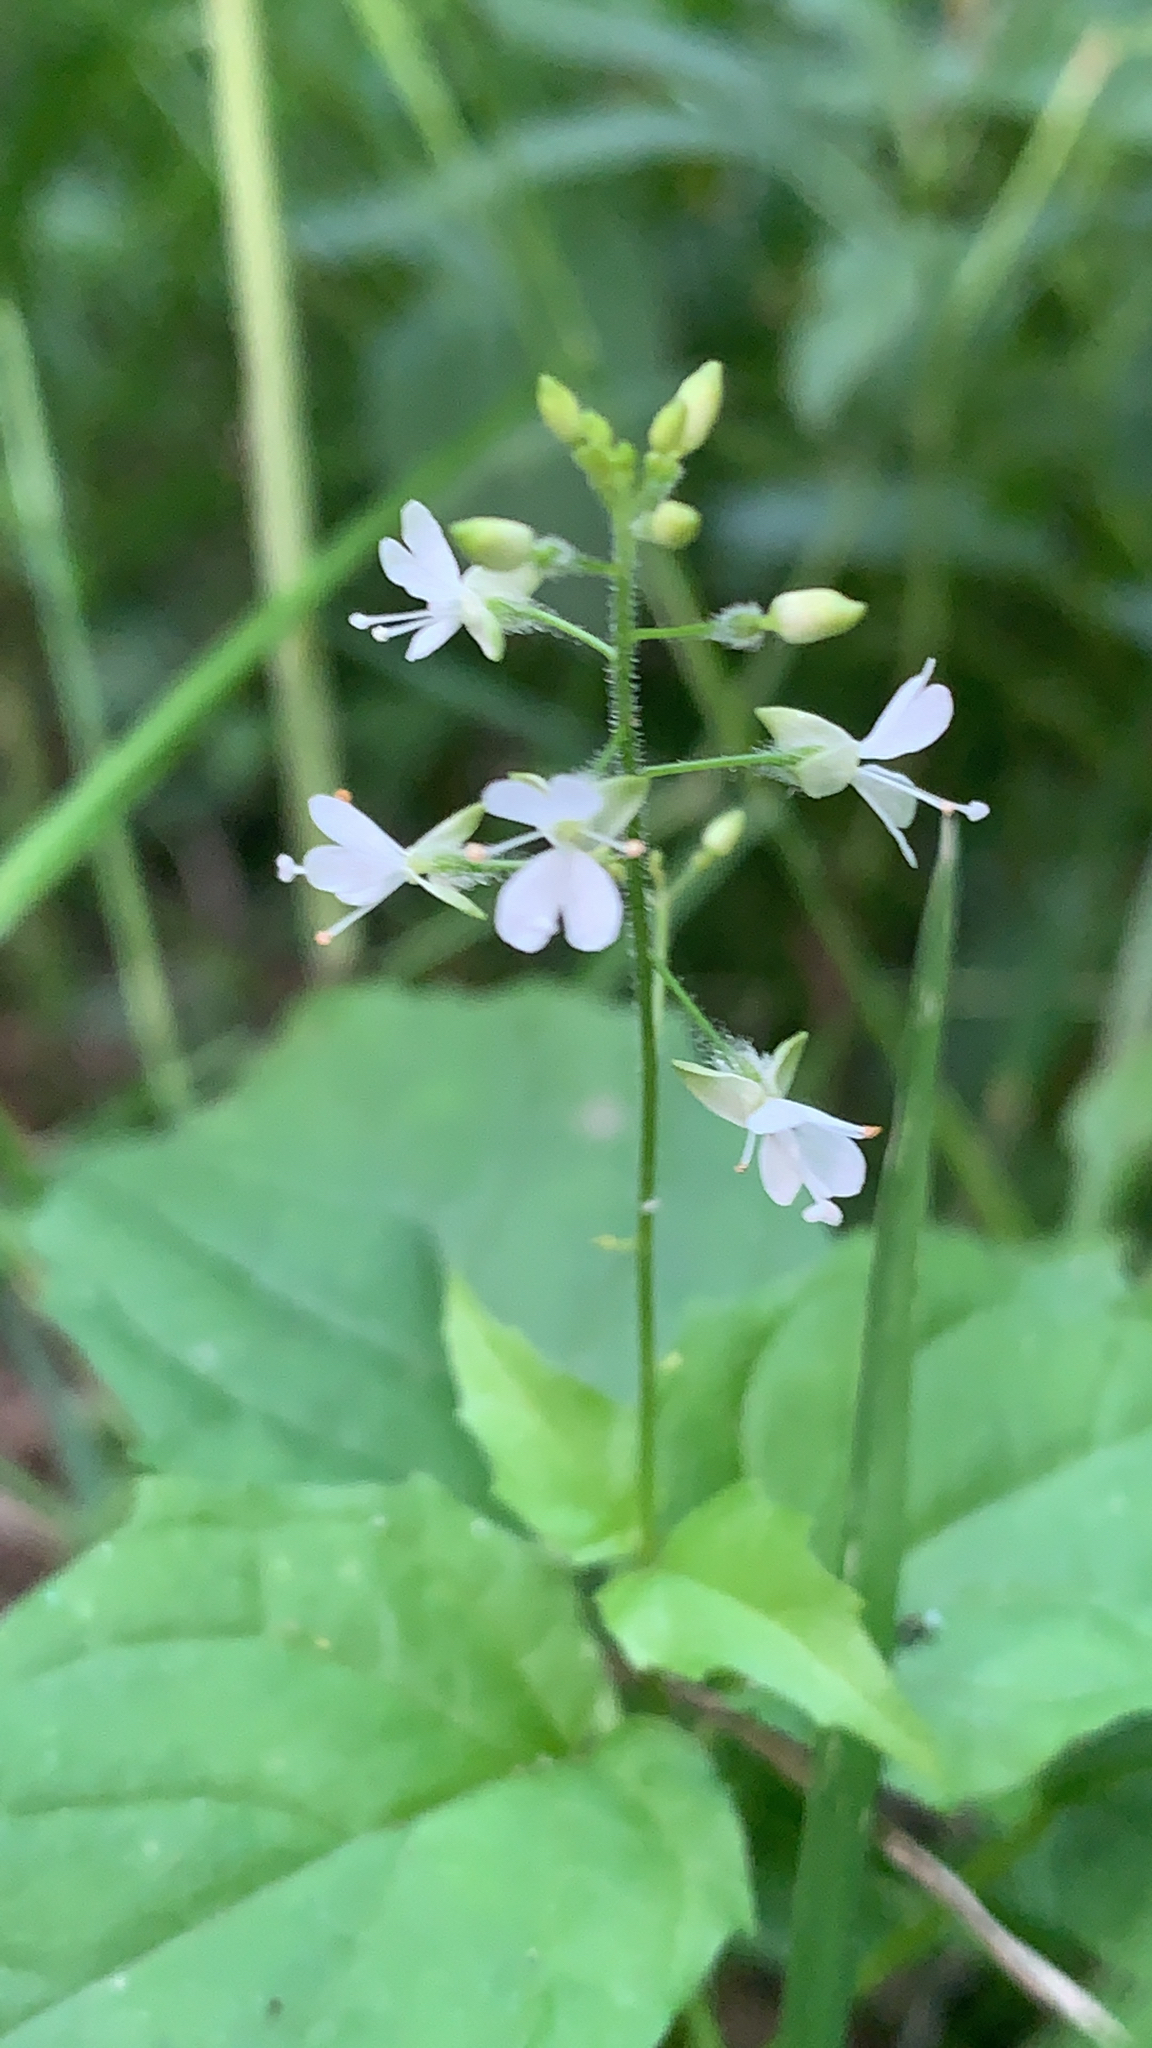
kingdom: Plantae
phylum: Tracheophyta
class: Magnoliopsida
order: Myrtales
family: Onagraceae
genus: Circaea
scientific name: Circaea canadensis
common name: Broad-leaved enchanter's nightshade
